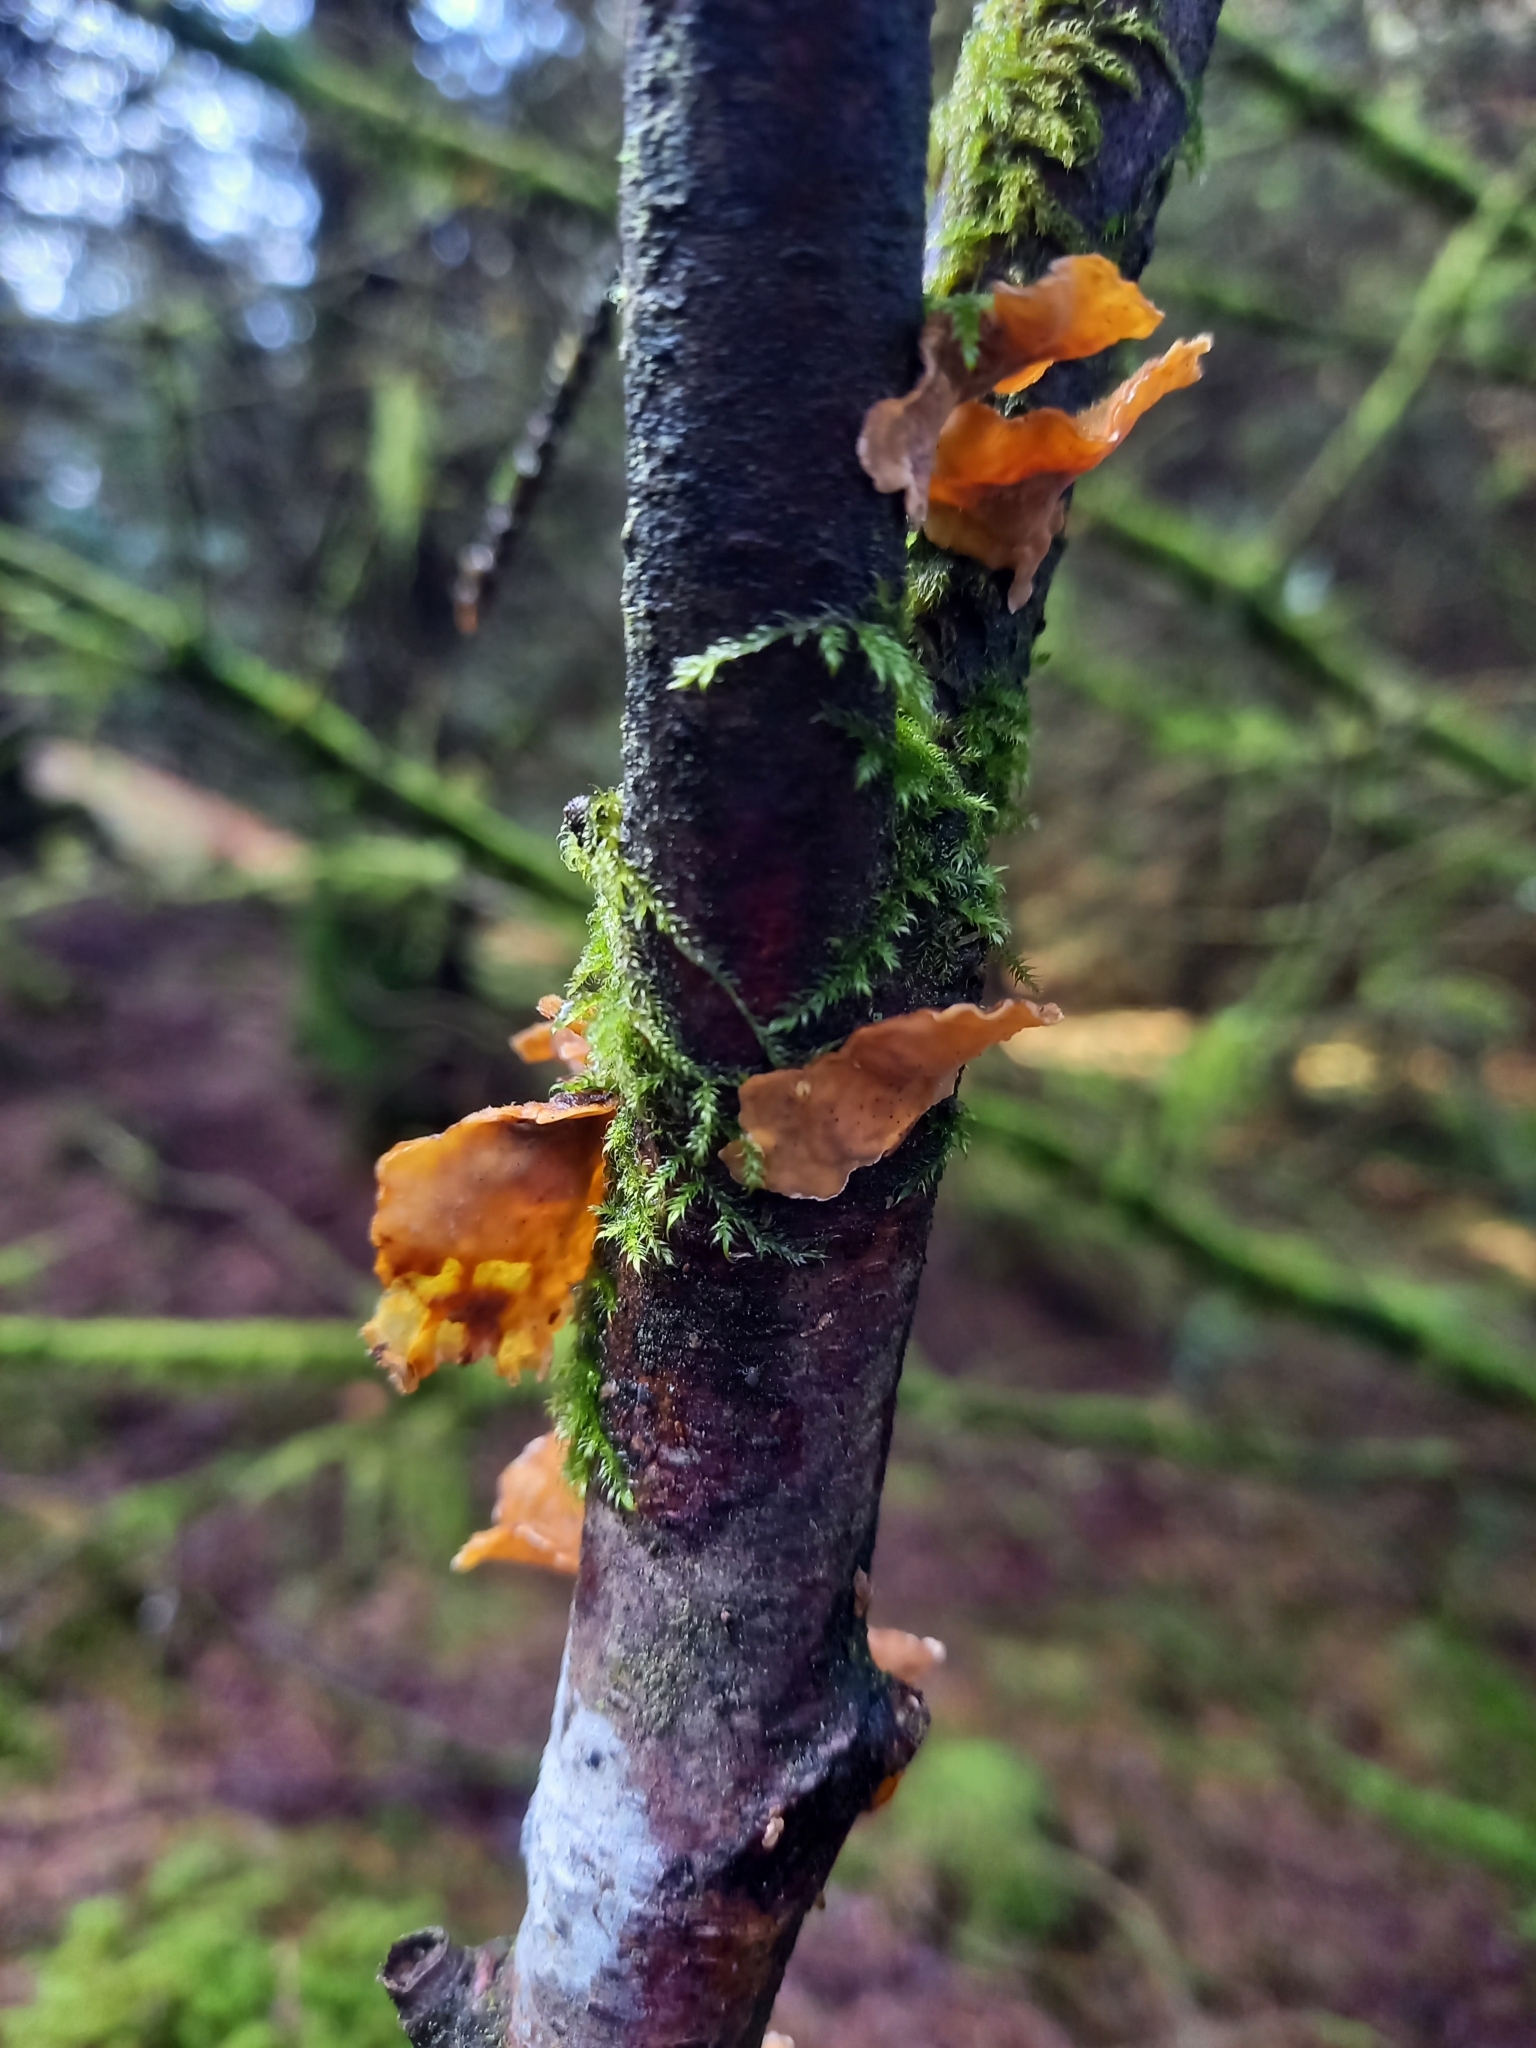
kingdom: Fungi
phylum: Basidiomycota
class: Agaricomycetes
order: Russulales
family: Stereaceae
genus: Stereum
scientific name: Stereum hirsutum
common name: Hairy curtain crust
